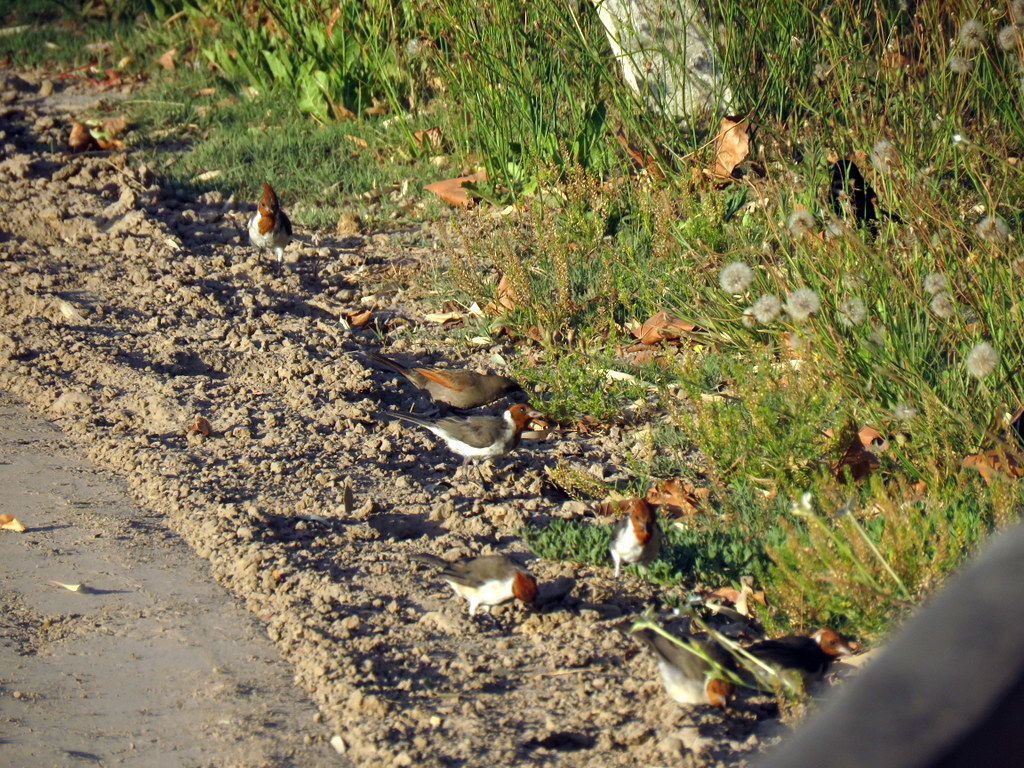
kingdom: Animalia
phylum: Chordata
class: Aves
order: Passeriformes
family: Thraupidae
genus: Paroaria
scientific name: Paroaria coronata
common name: Red-crested cardinal
